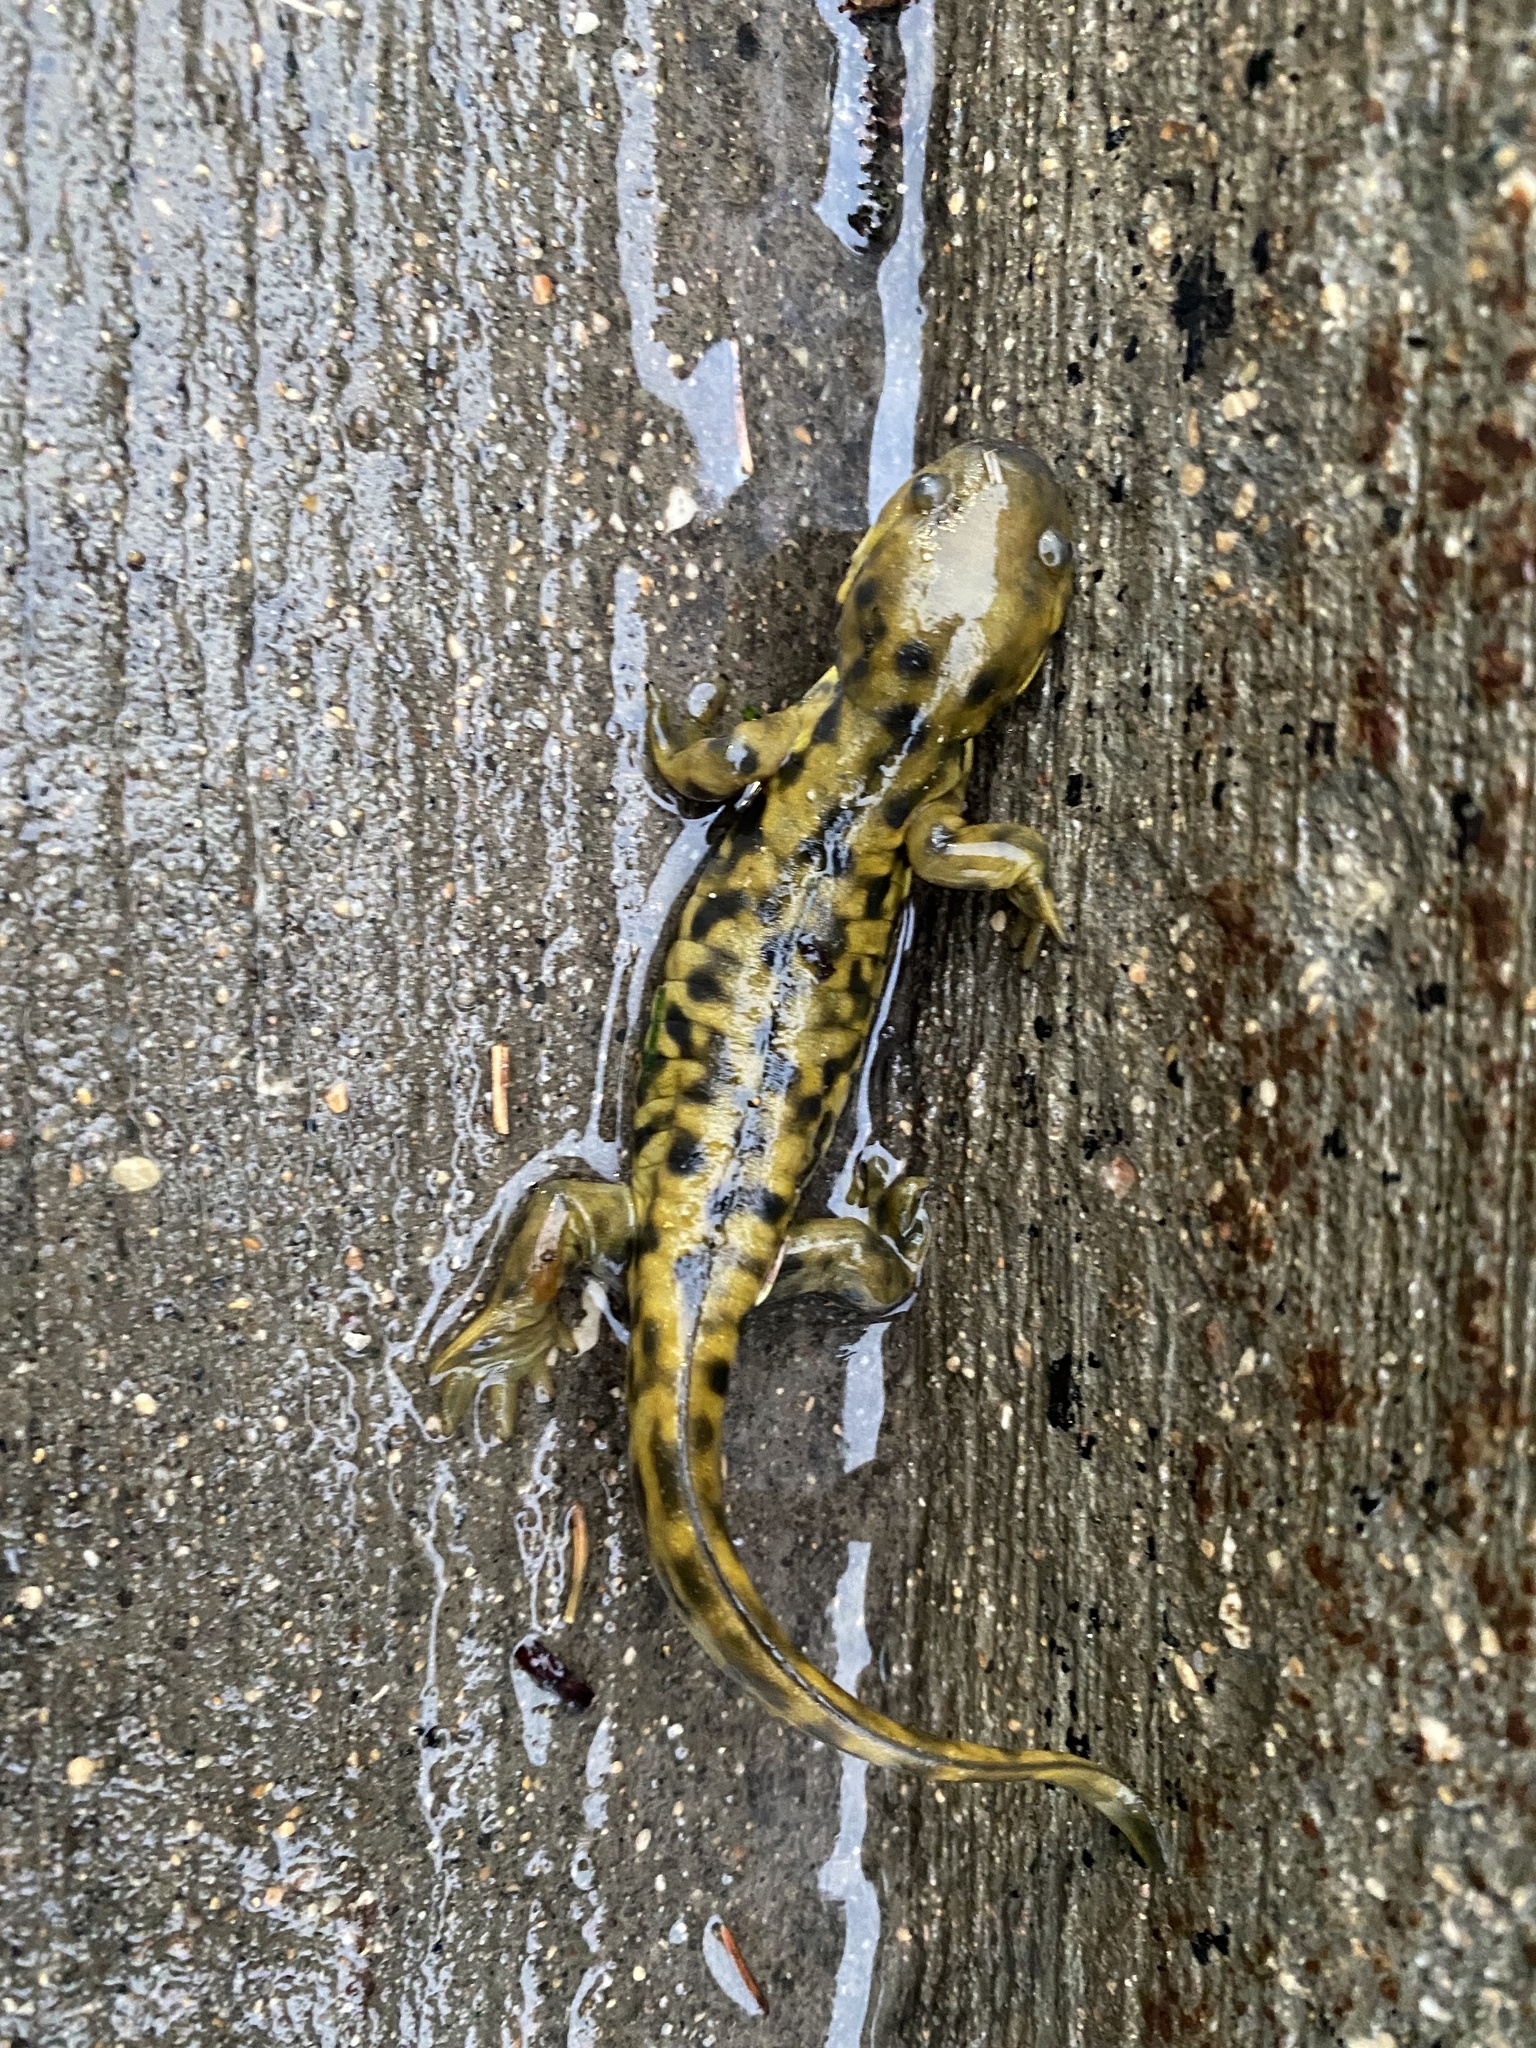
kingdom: Animalia
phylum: Chordata
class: Amphibia
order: Caudata
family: Ambystomatidae
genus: Ambystoma
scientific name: Ambystoma mavortium
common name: Western tiger salamander
